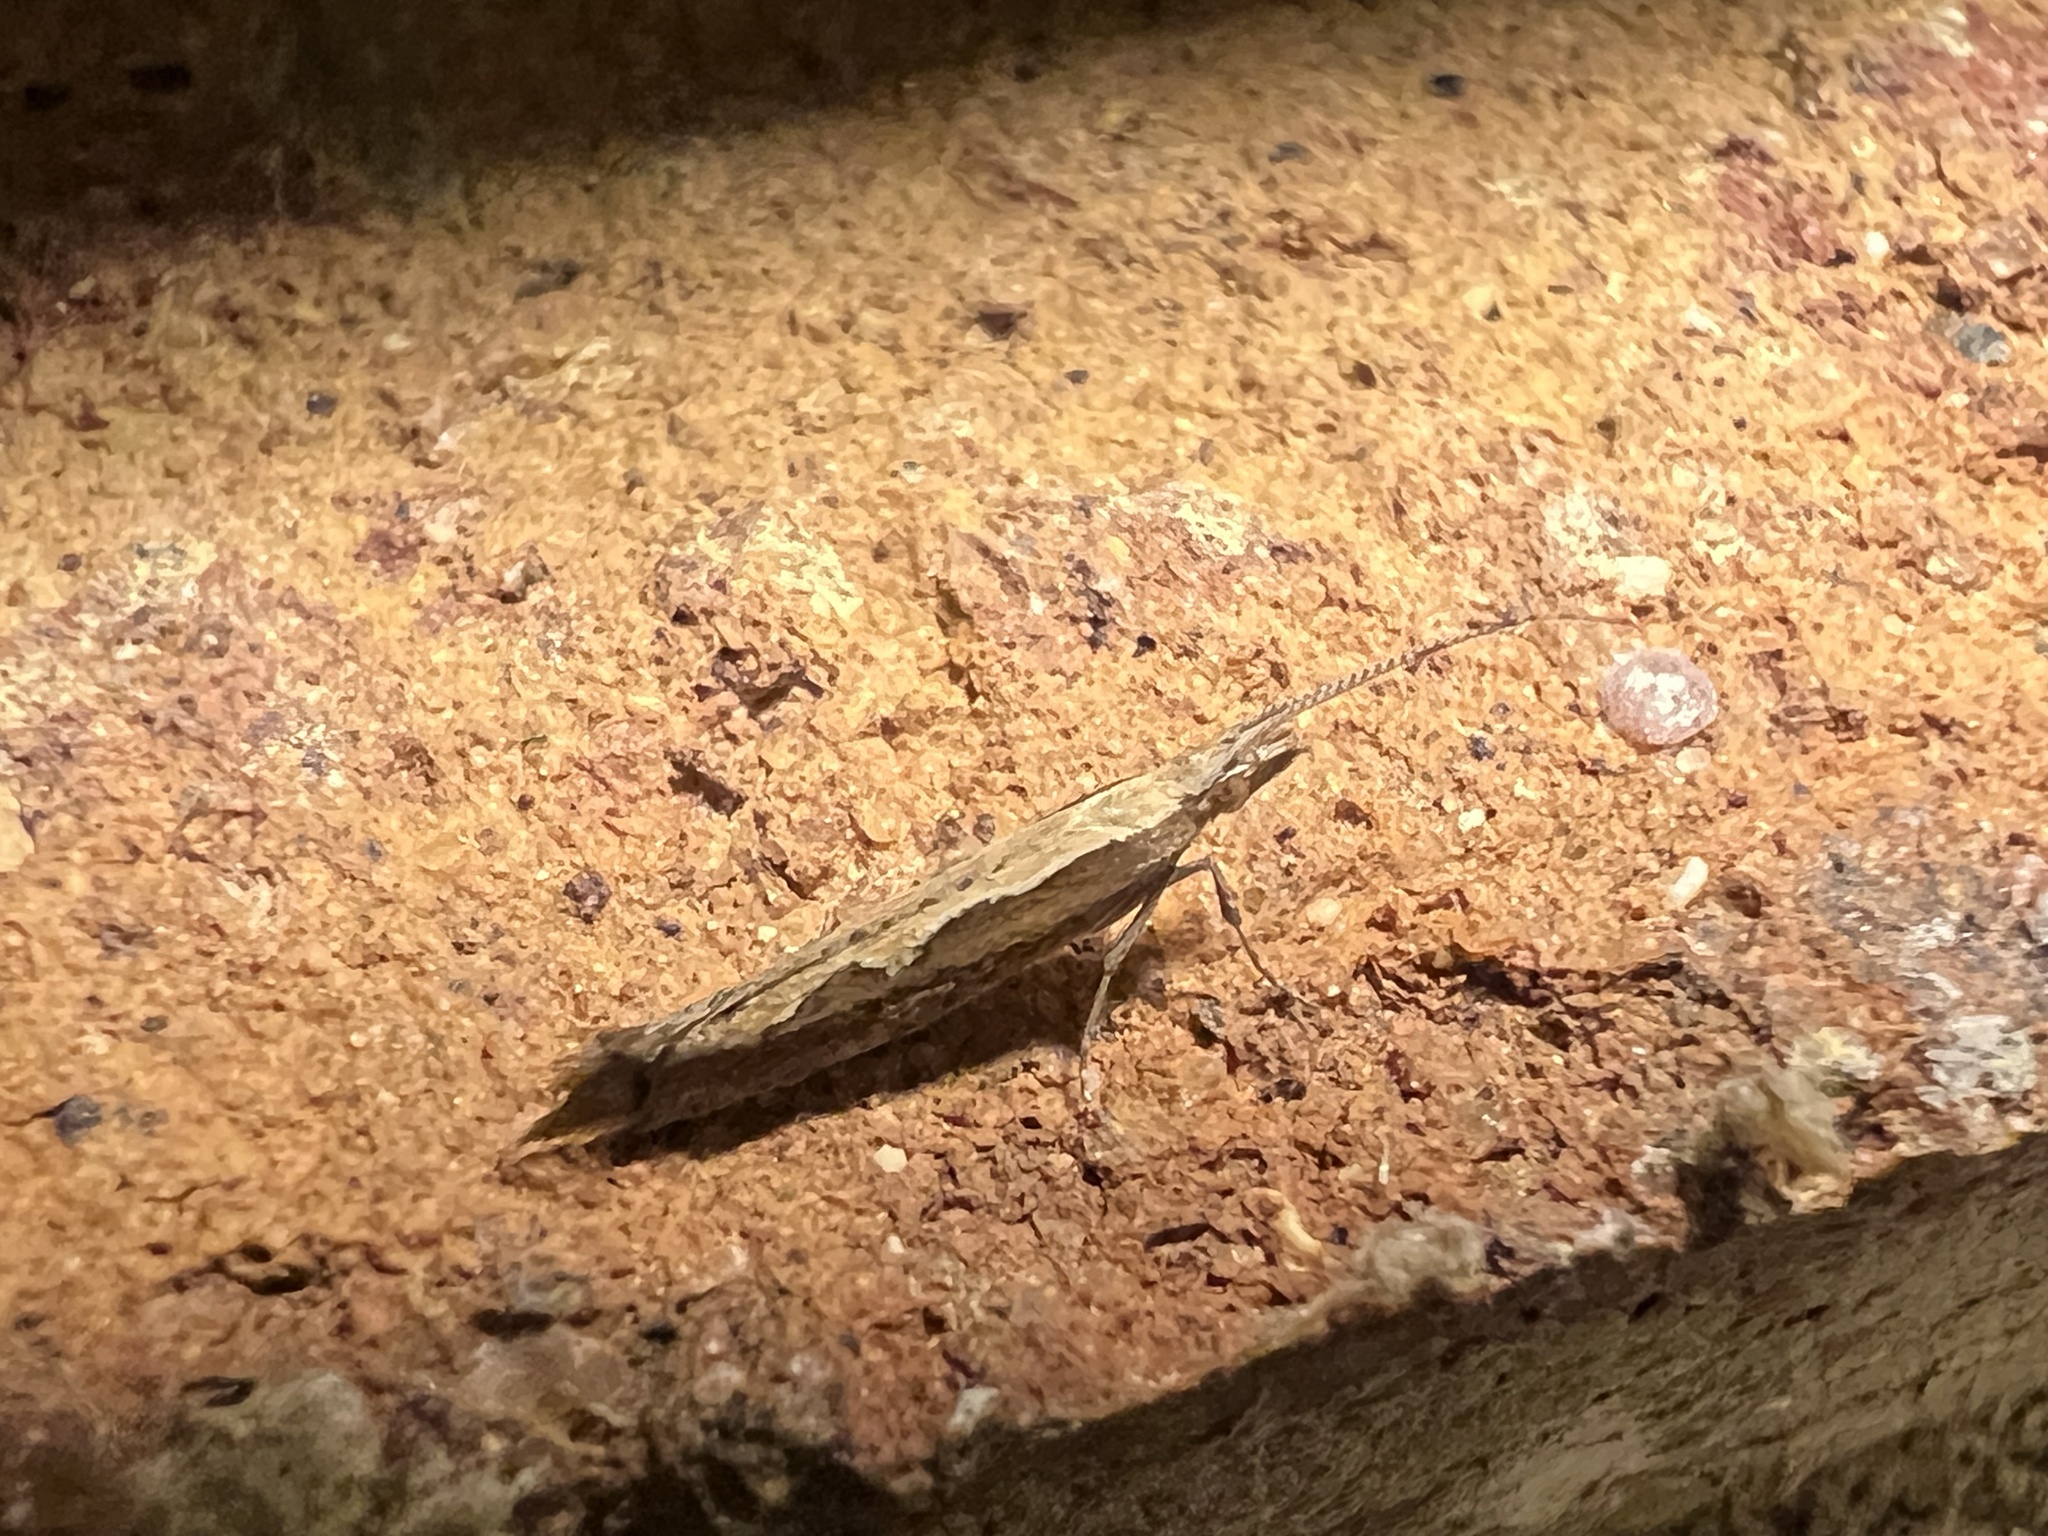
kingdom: Animalia
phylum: Arthropoda
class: Insecta
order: Lepidoptera
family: Plutellidae
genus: Plutella
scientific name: Plutella xylostella
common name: Diamond-back moth
